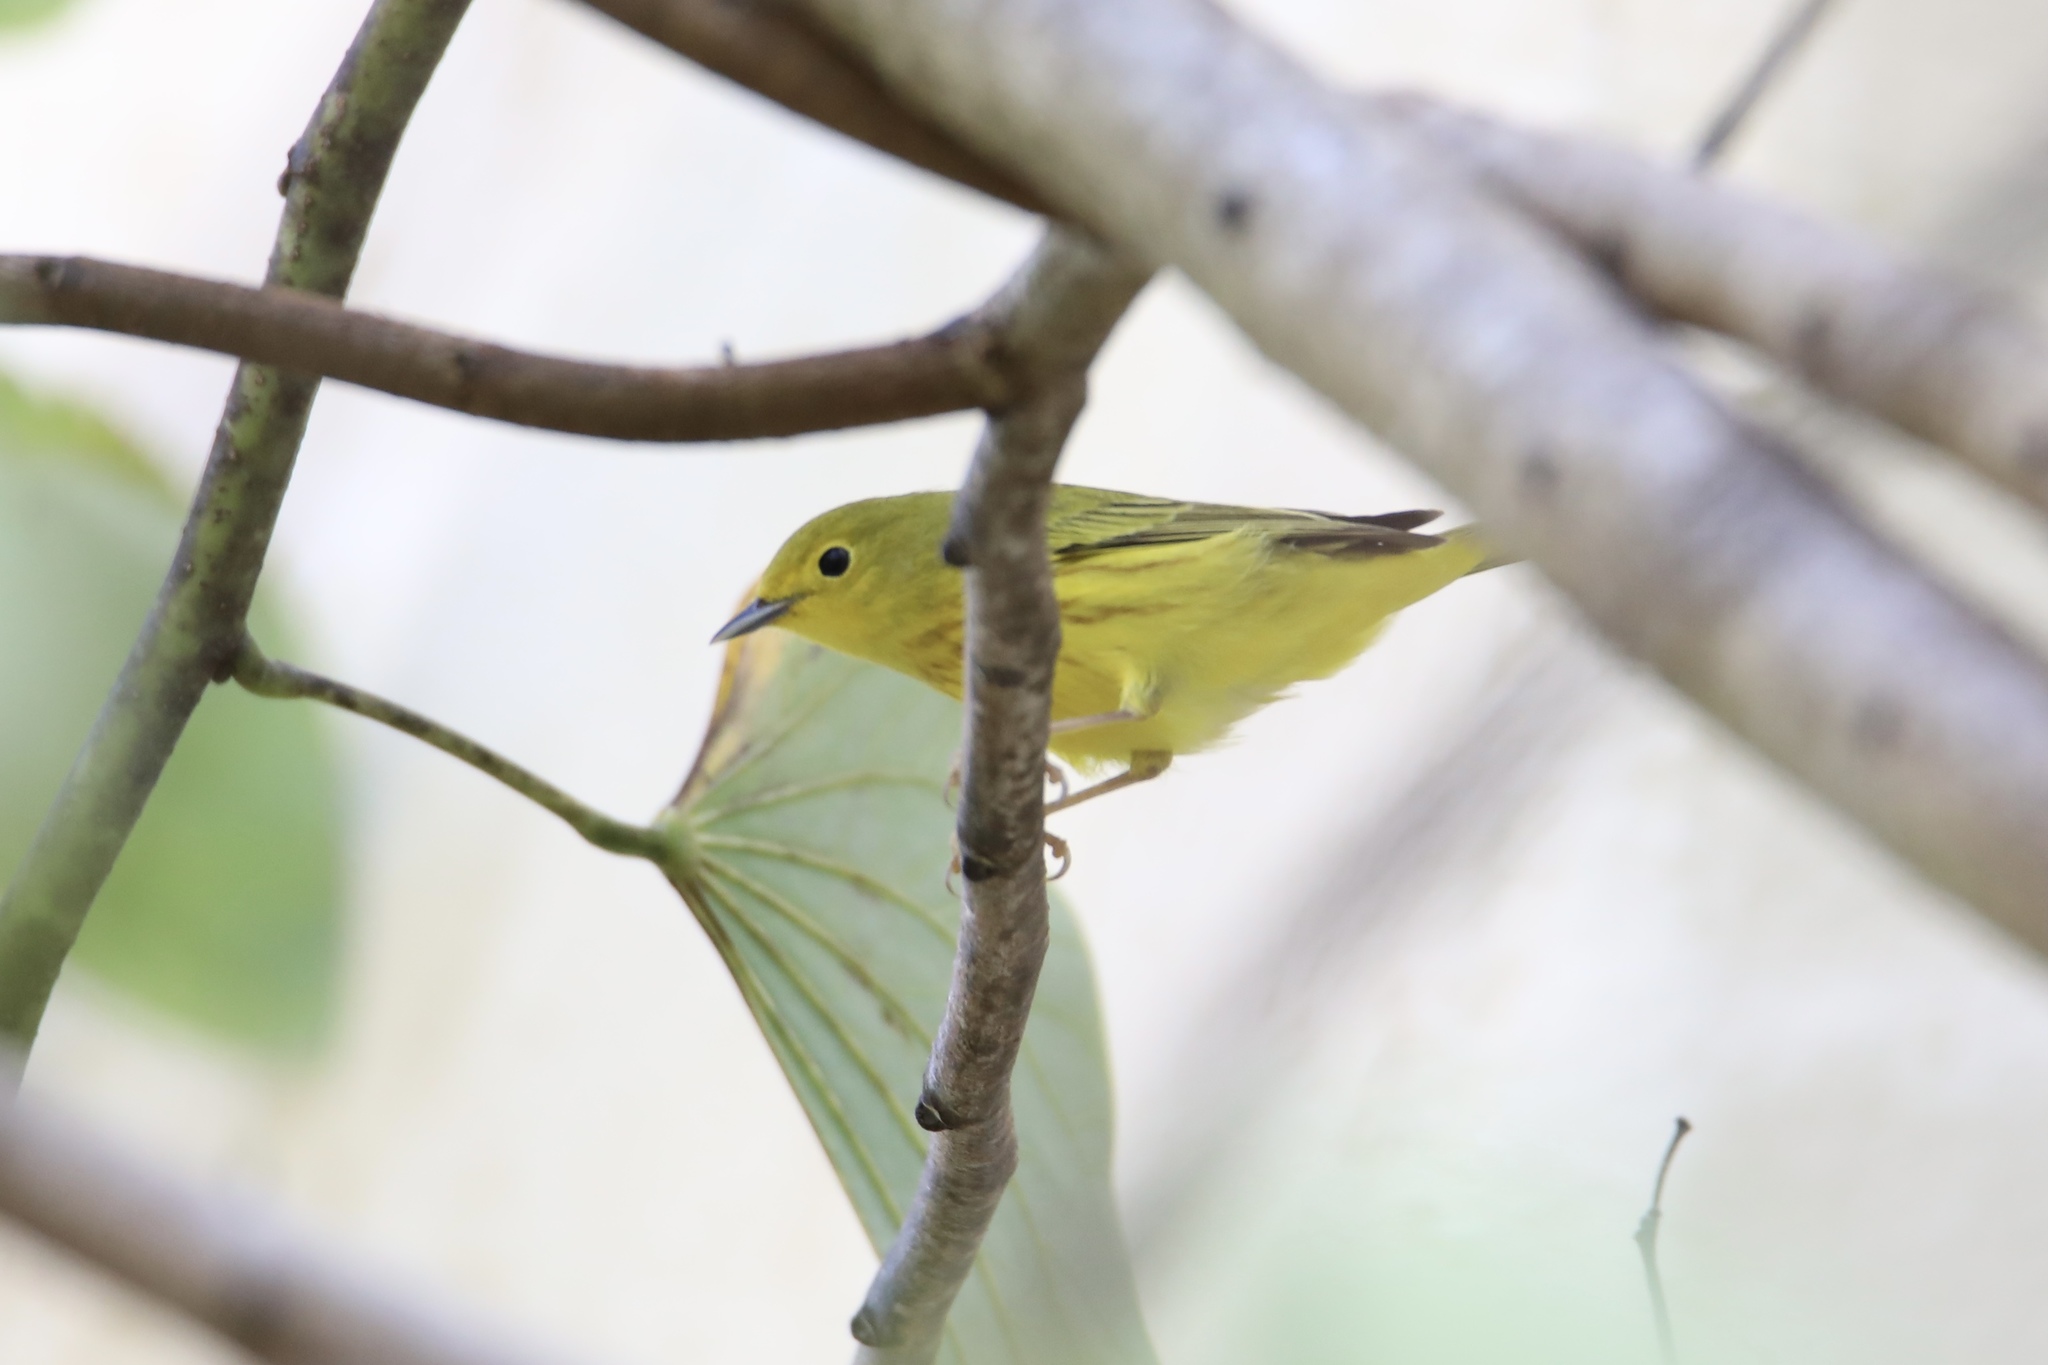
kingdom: Animalia
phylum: Chordata
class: Aves
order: Passeriformes
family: Parulidae
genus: Setophaga
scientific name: Setophaga petechia
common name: Yellow warbler
